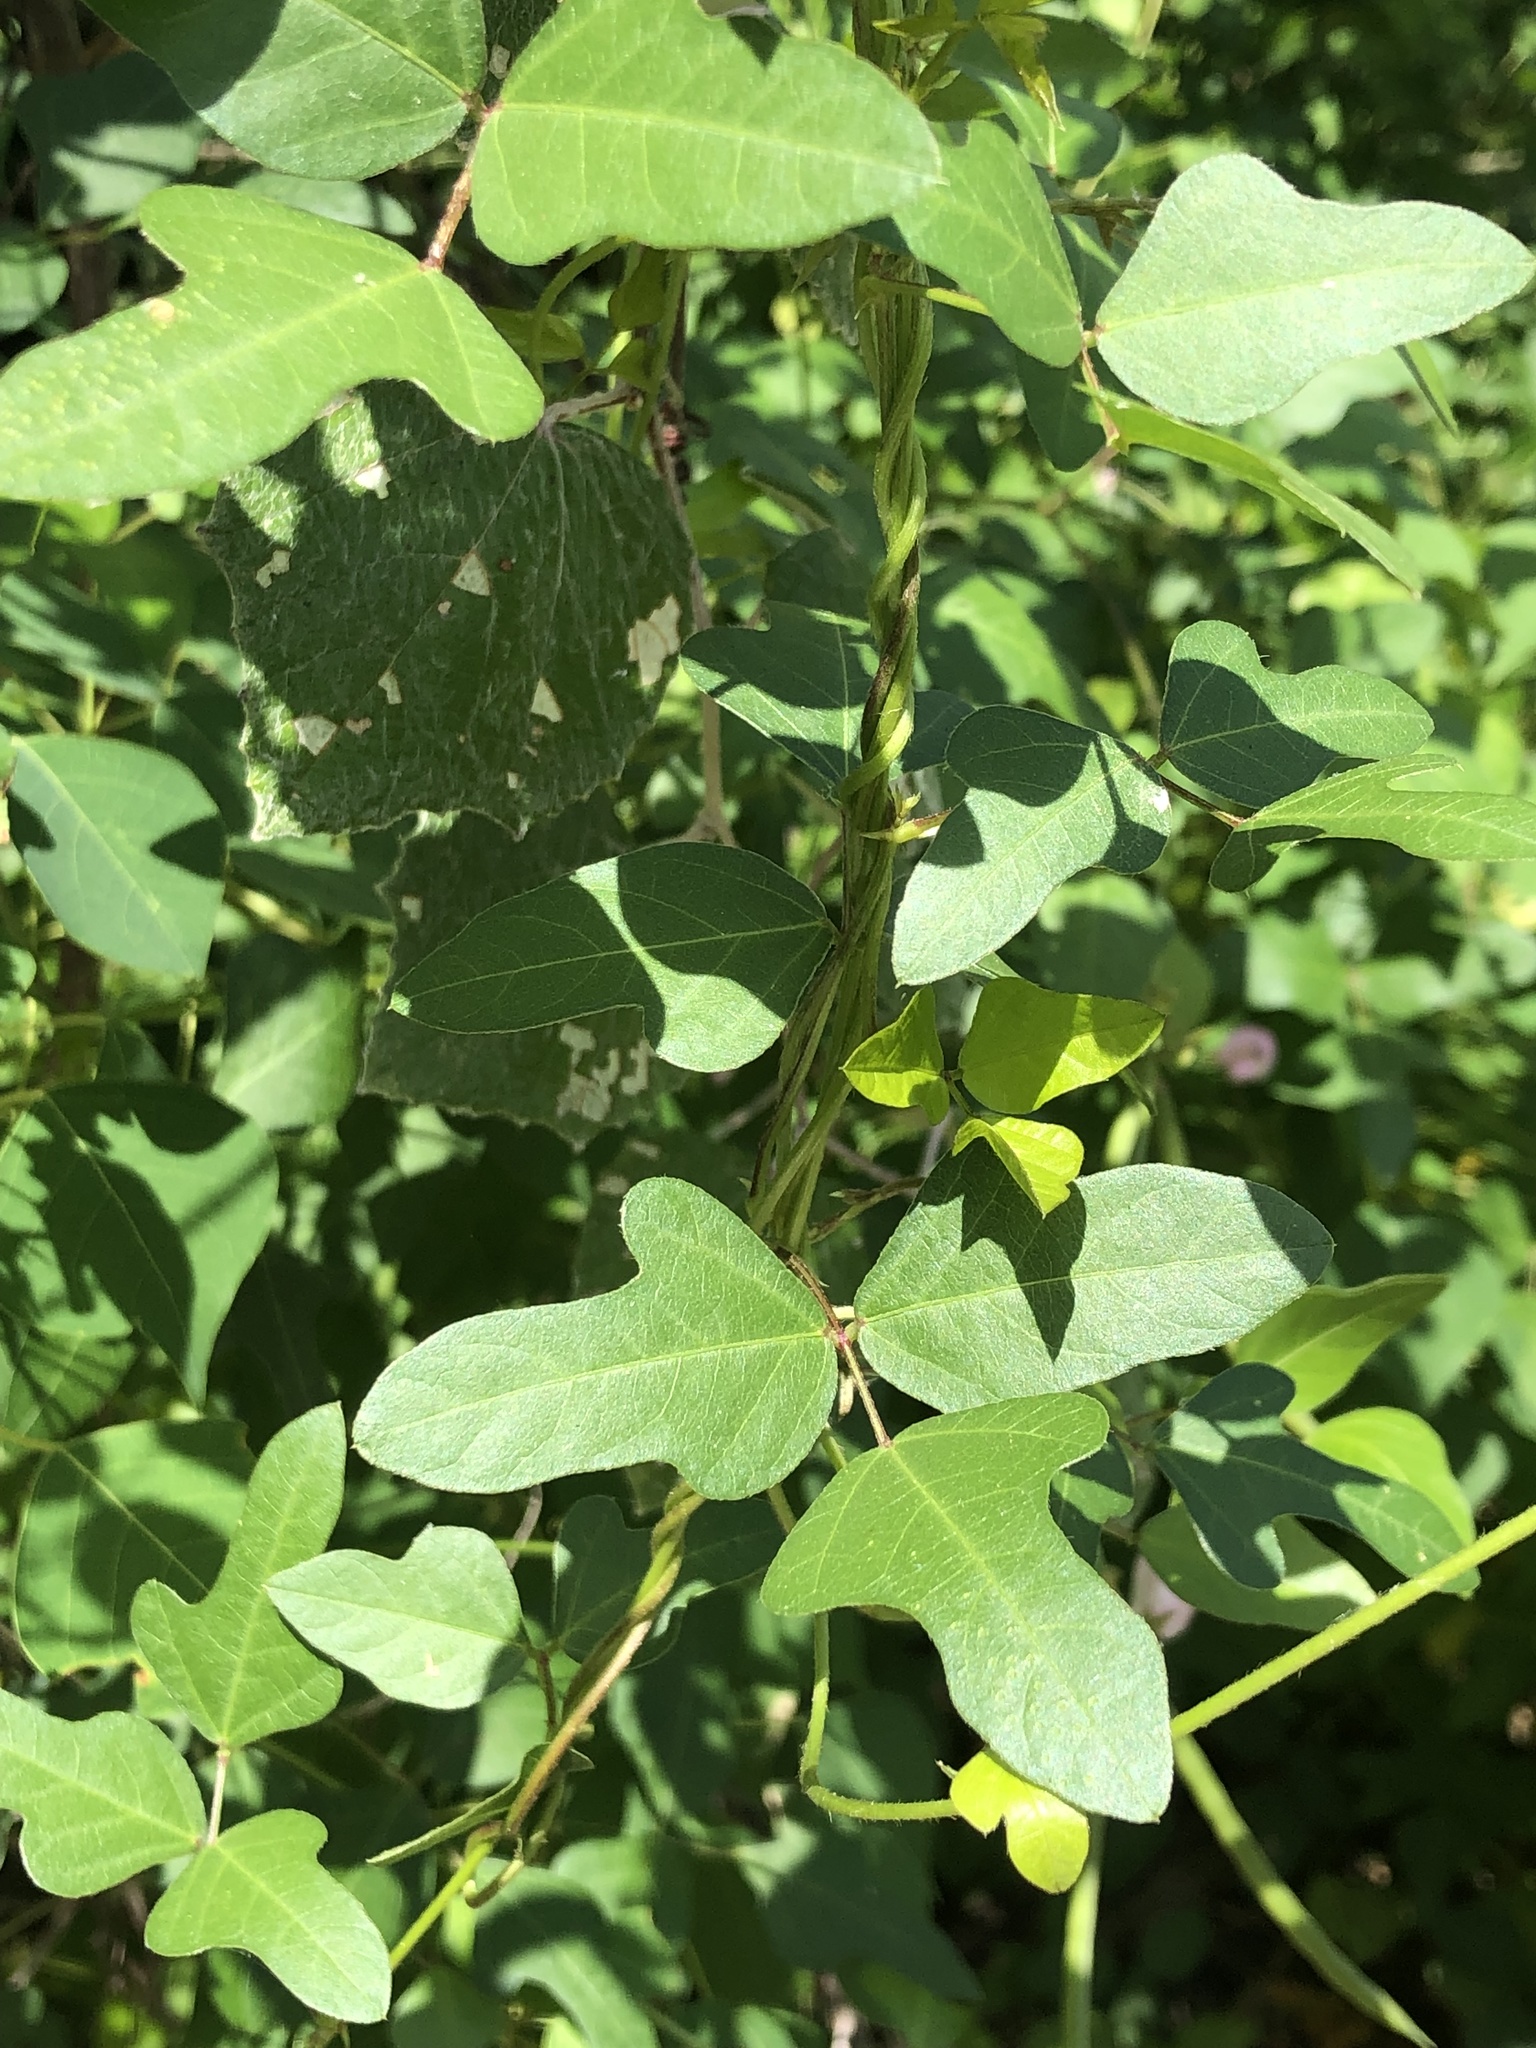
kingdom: Plantae
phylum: Tracheophyta
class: Magnoliopsida
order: Fabales
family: Fabaceae
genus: Strophostyles
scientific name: Strophostyles helvola
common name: Trailing wild bean
